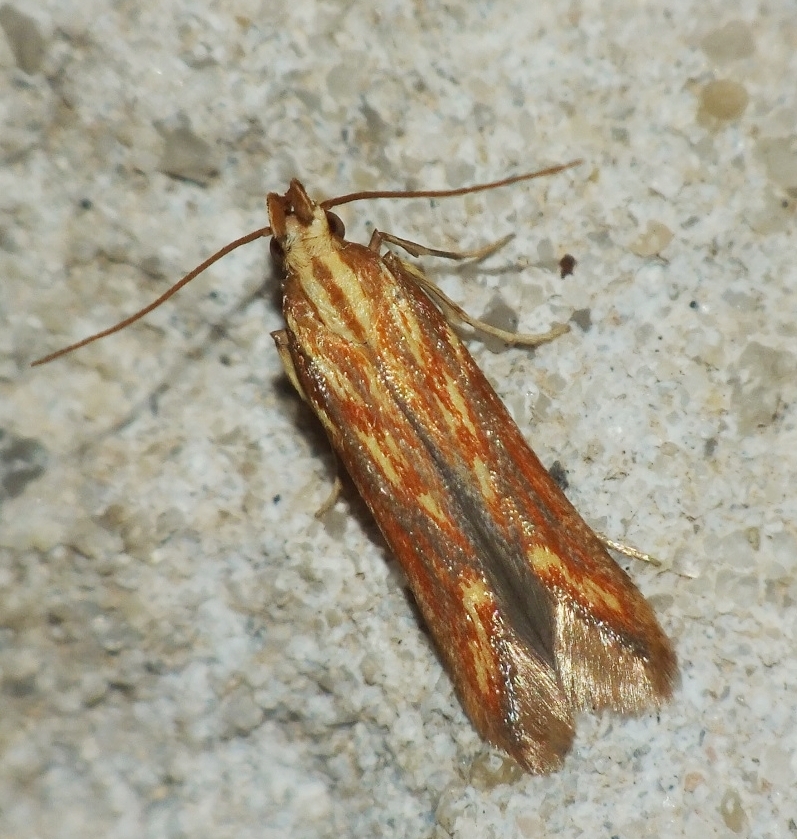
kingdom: Animalia
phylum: Arthropoda
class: Insecta
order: Lepidoptera
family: Gelechiidae
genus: Metzneria
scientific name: Metzneria aprilella
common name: Brilliant neb
